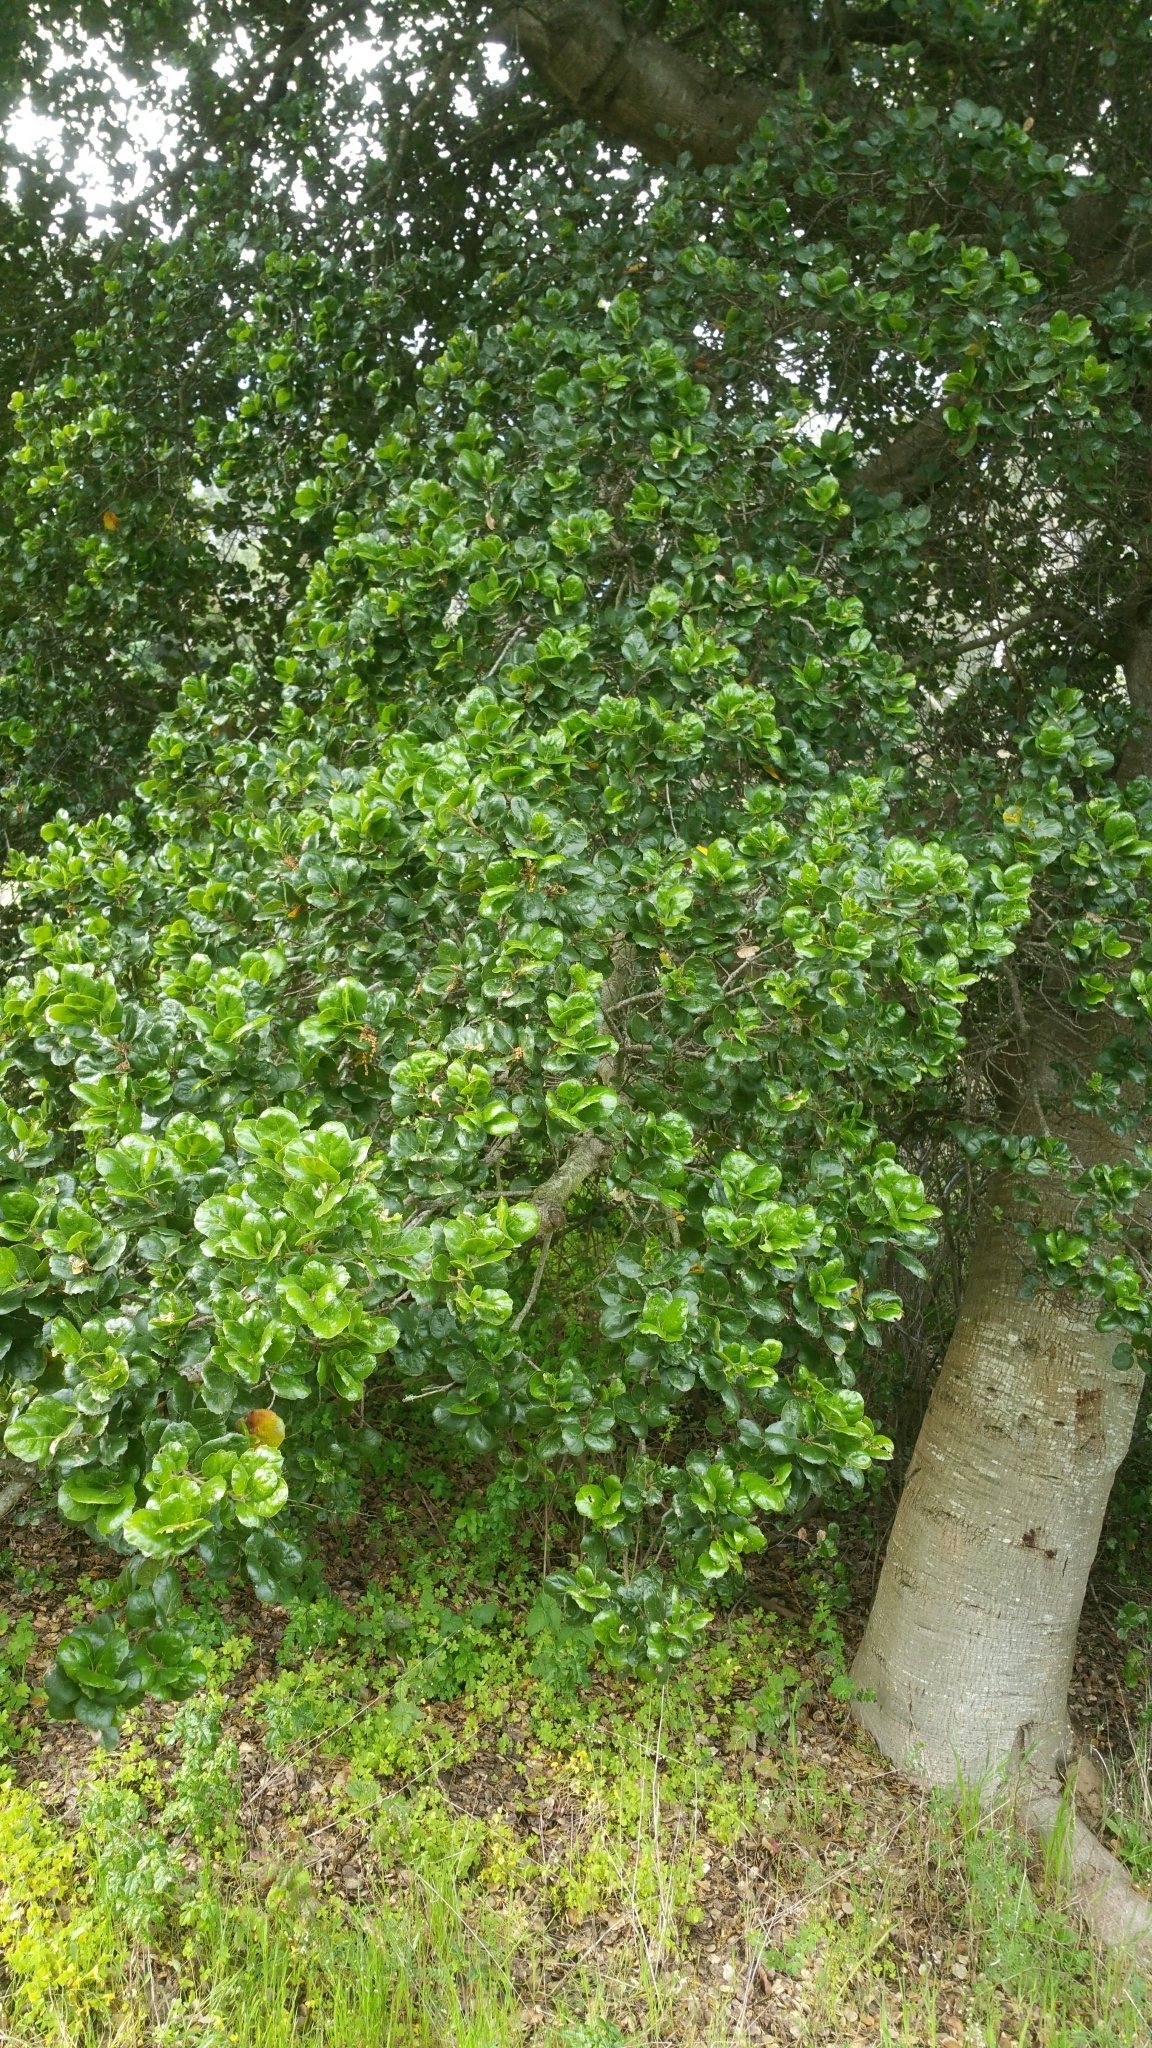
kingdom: Plantae
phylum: Tracheophyta
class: Magnoliopsida
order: Fagales
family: Fagaceae
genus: Quercus
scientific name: Quercus agrifolia
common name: California live oak
